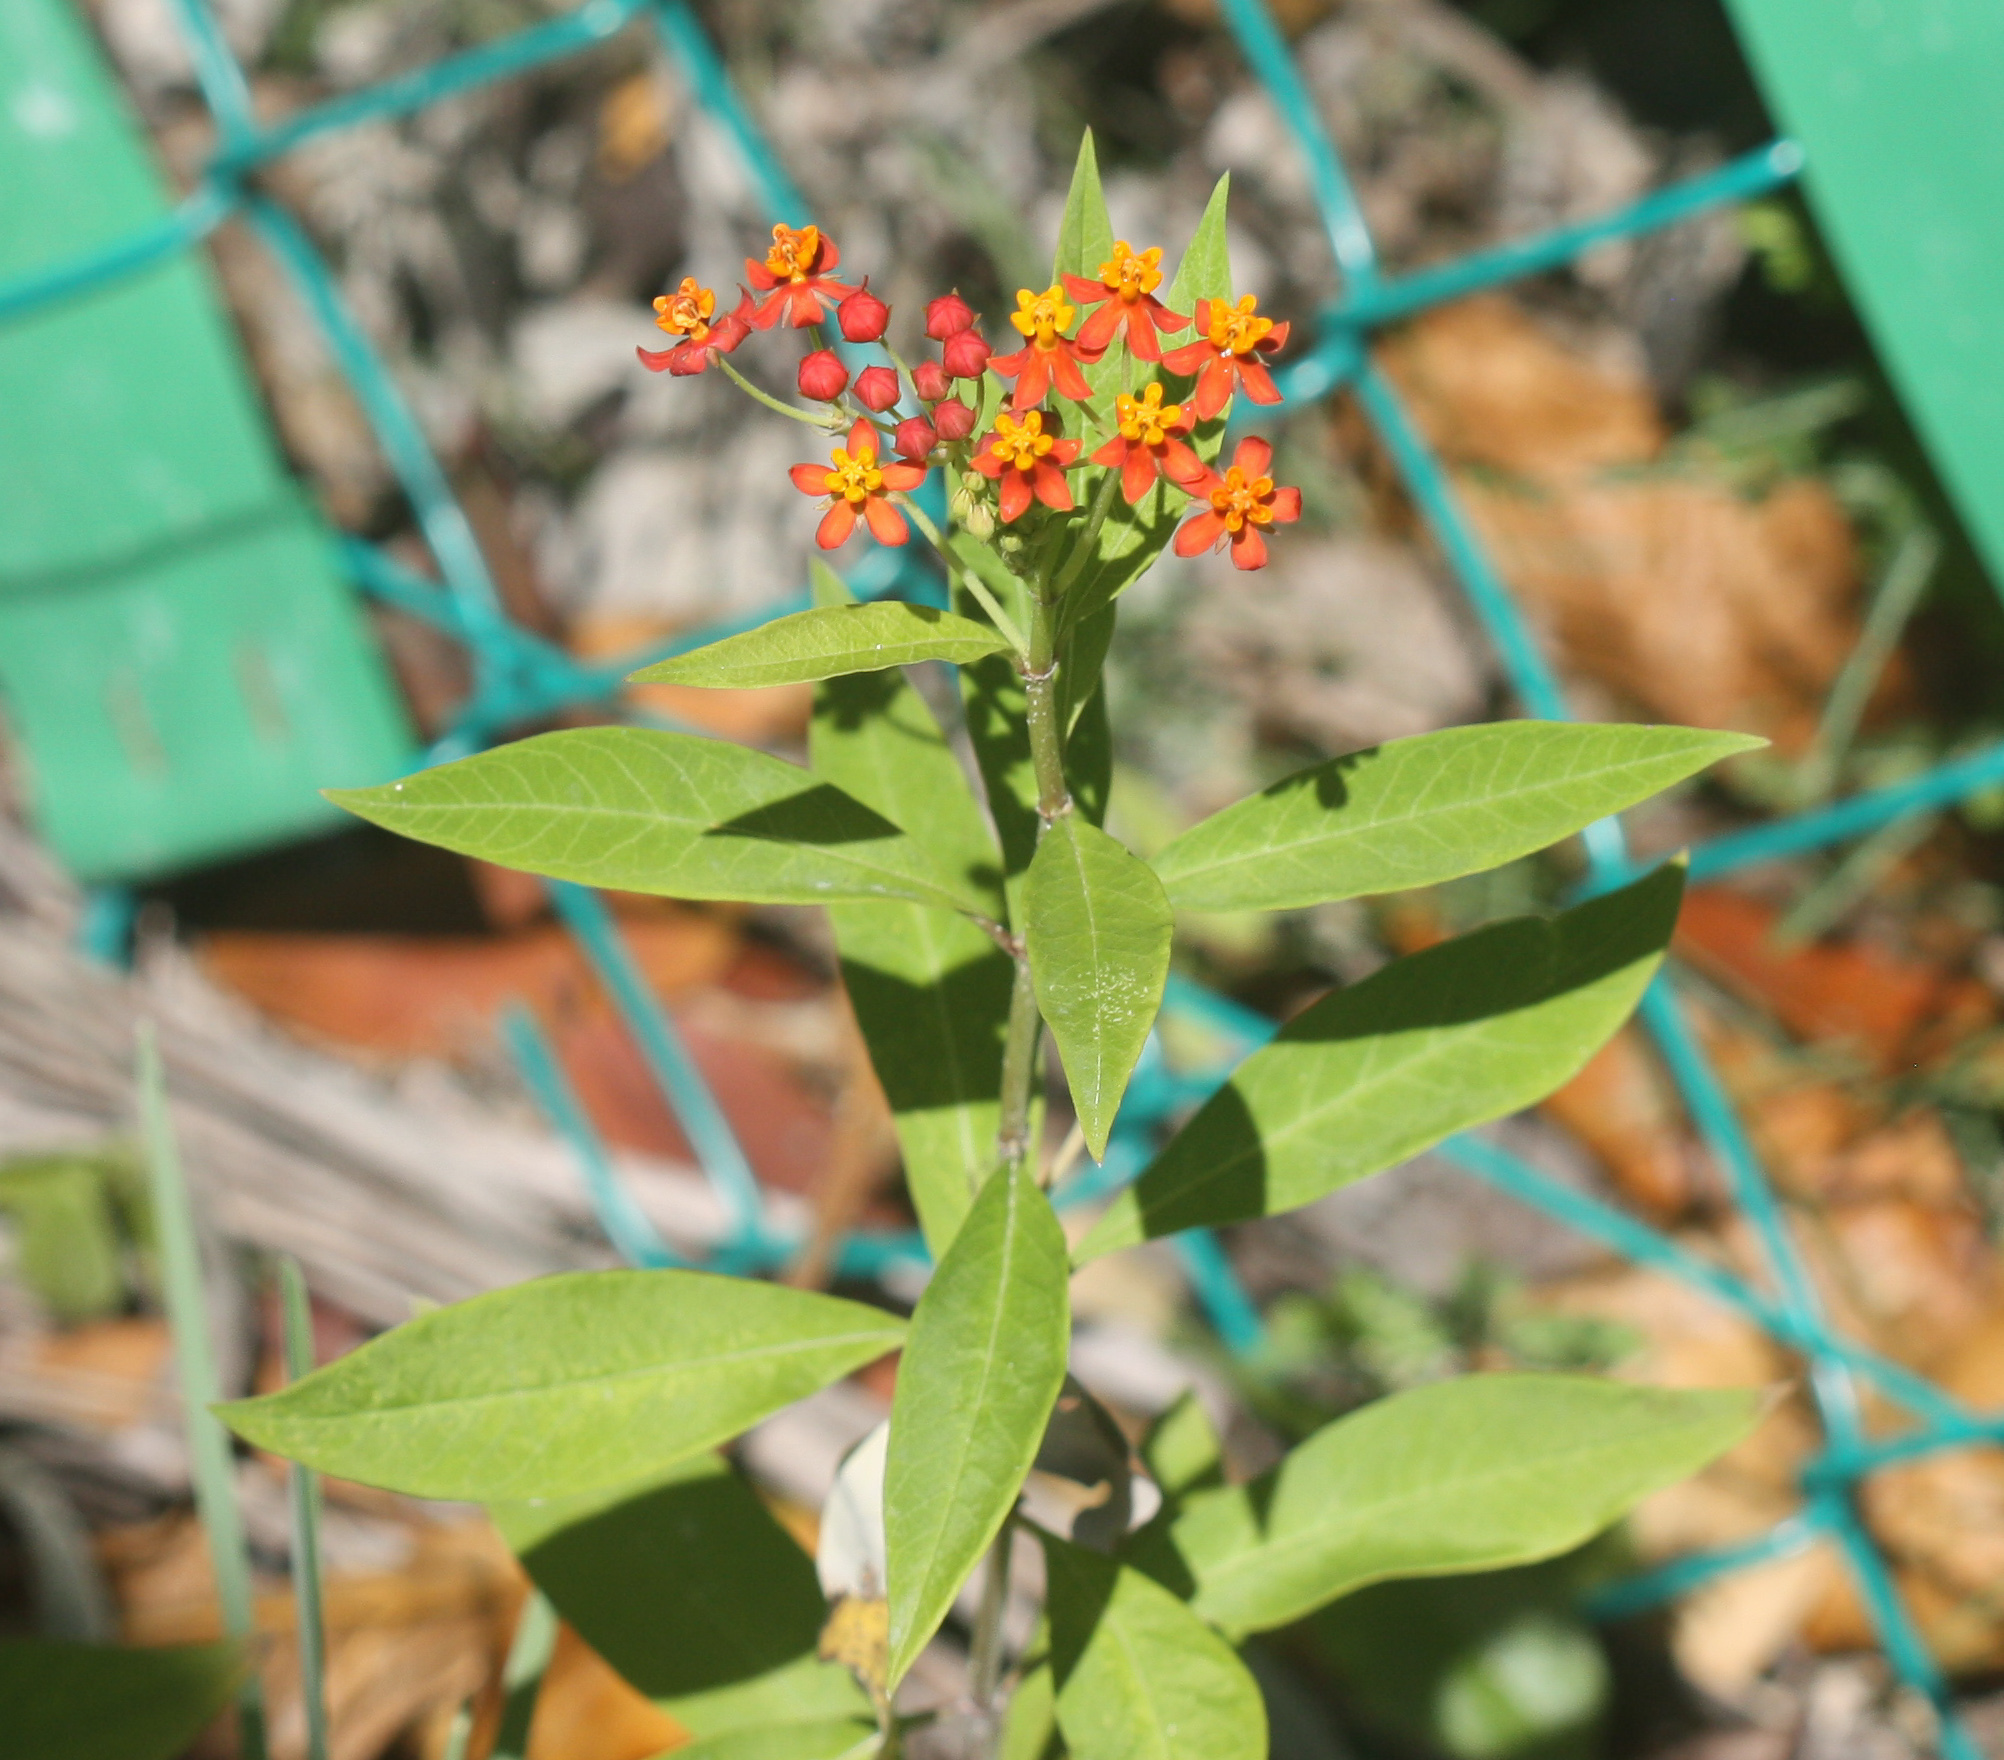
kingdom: Plantae
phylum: Tracheophyta
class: Magnoliopsida
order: Gentianales
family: Apocynaceae
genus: Asclepias
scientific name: Asclepias curassavica
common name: Bloodflower
